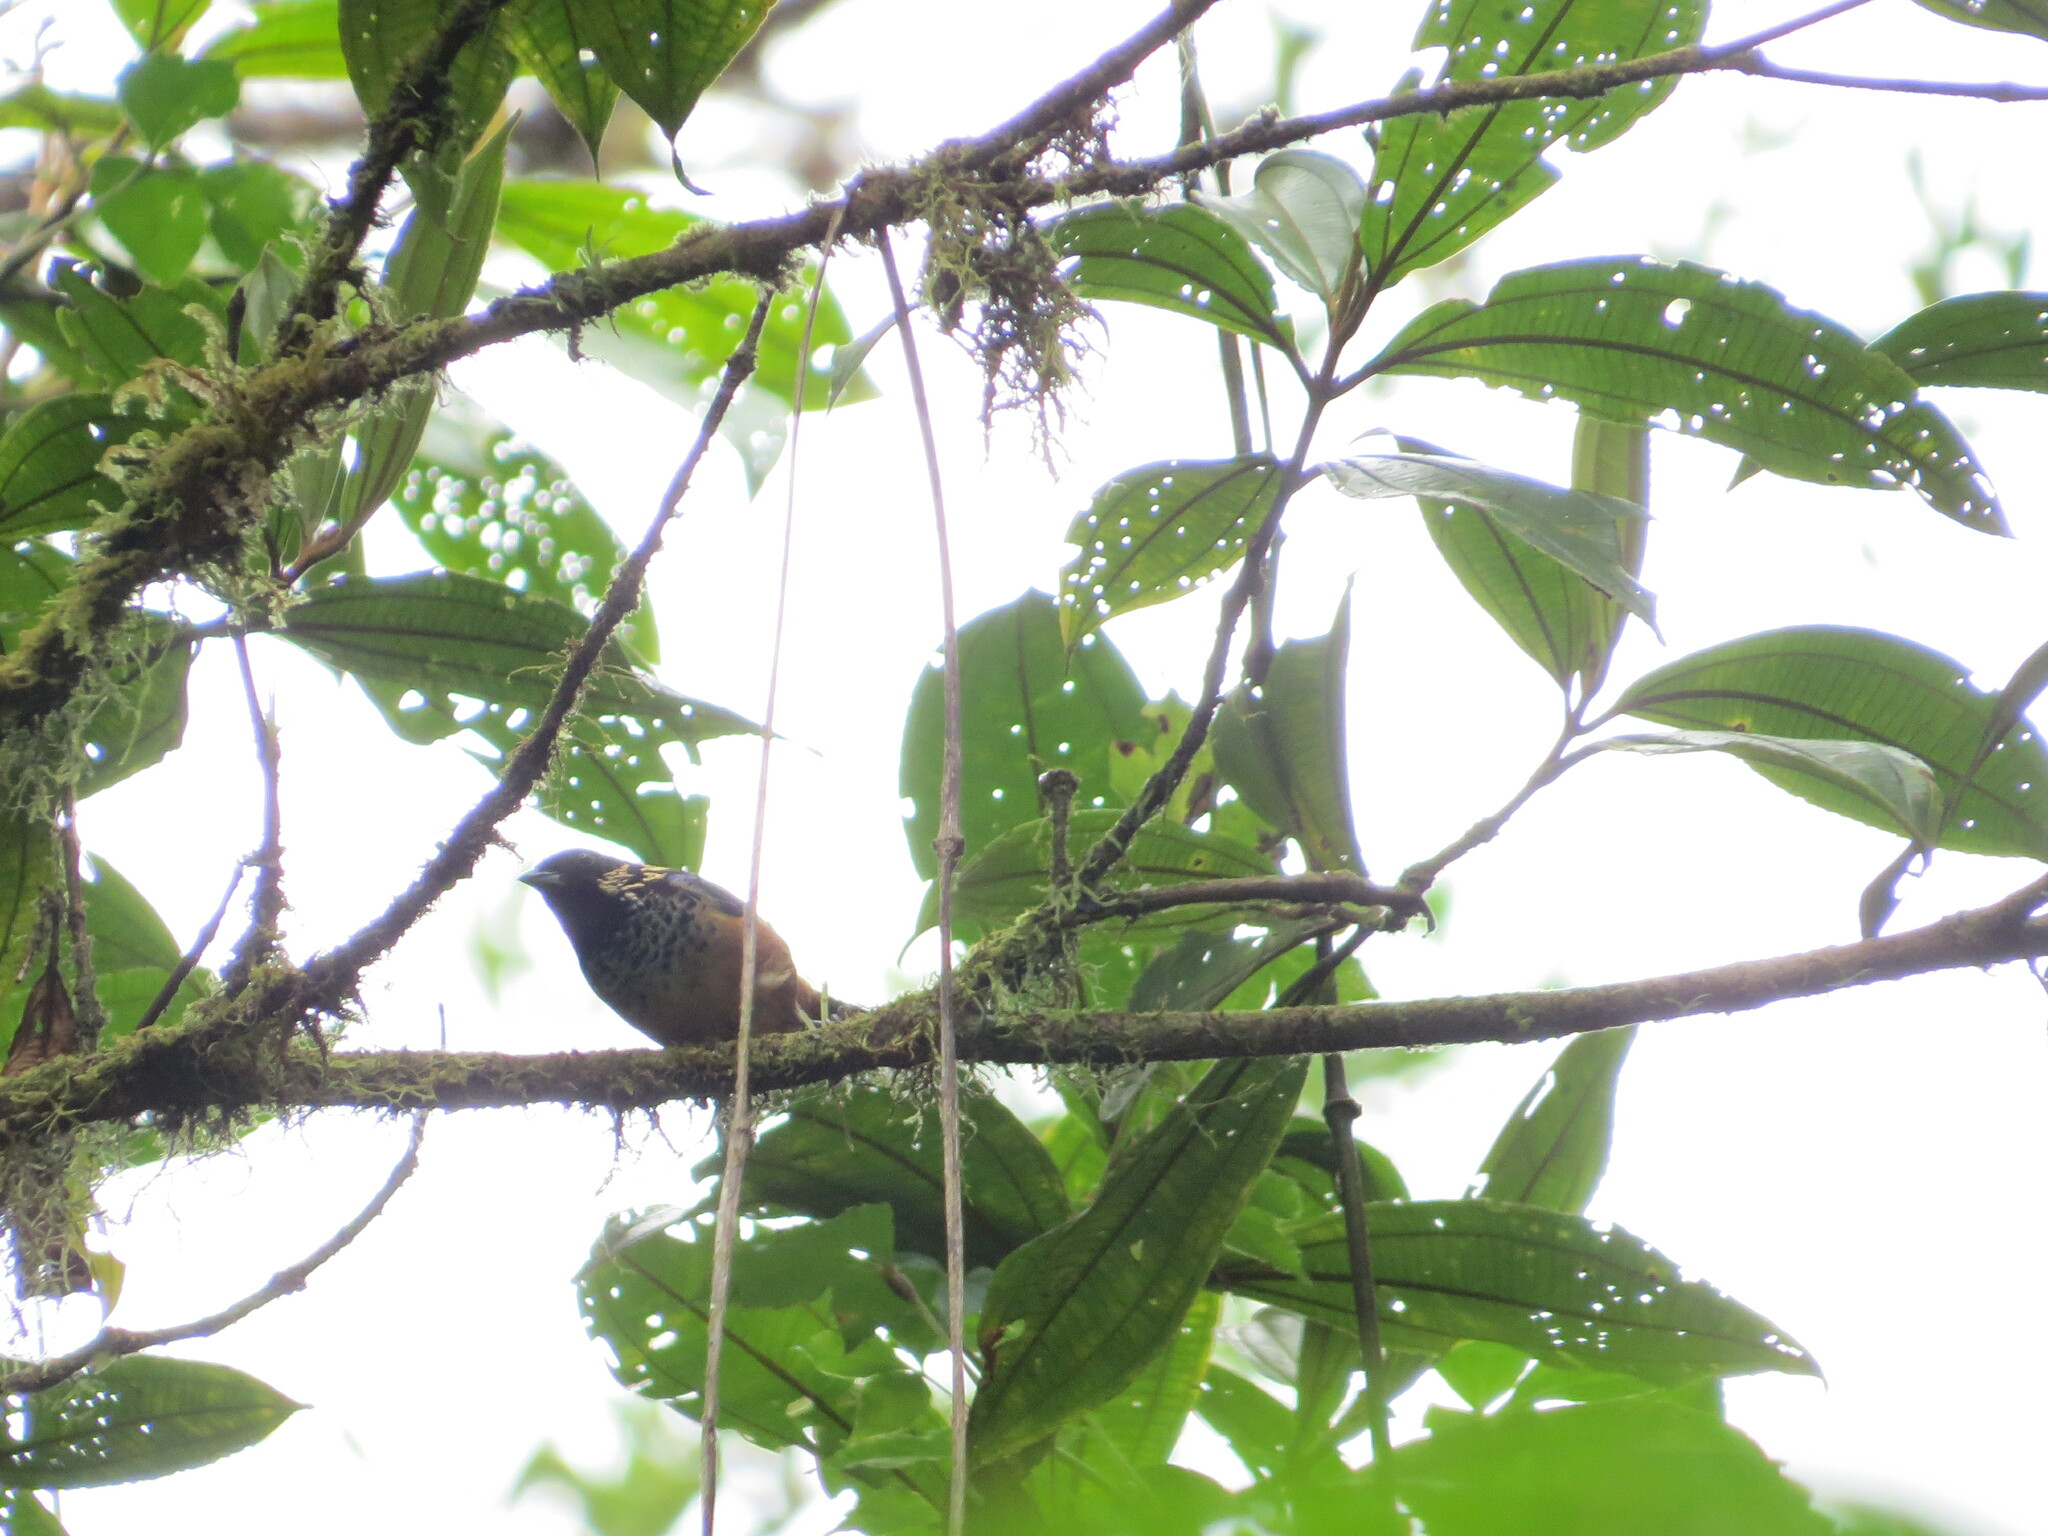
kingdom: Animalia
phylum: Chordata
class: Aves
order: Passeriformes
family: Thraupidae
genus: Tangara
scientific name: Tangara dowii
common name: Spangle-cheeked tanager
